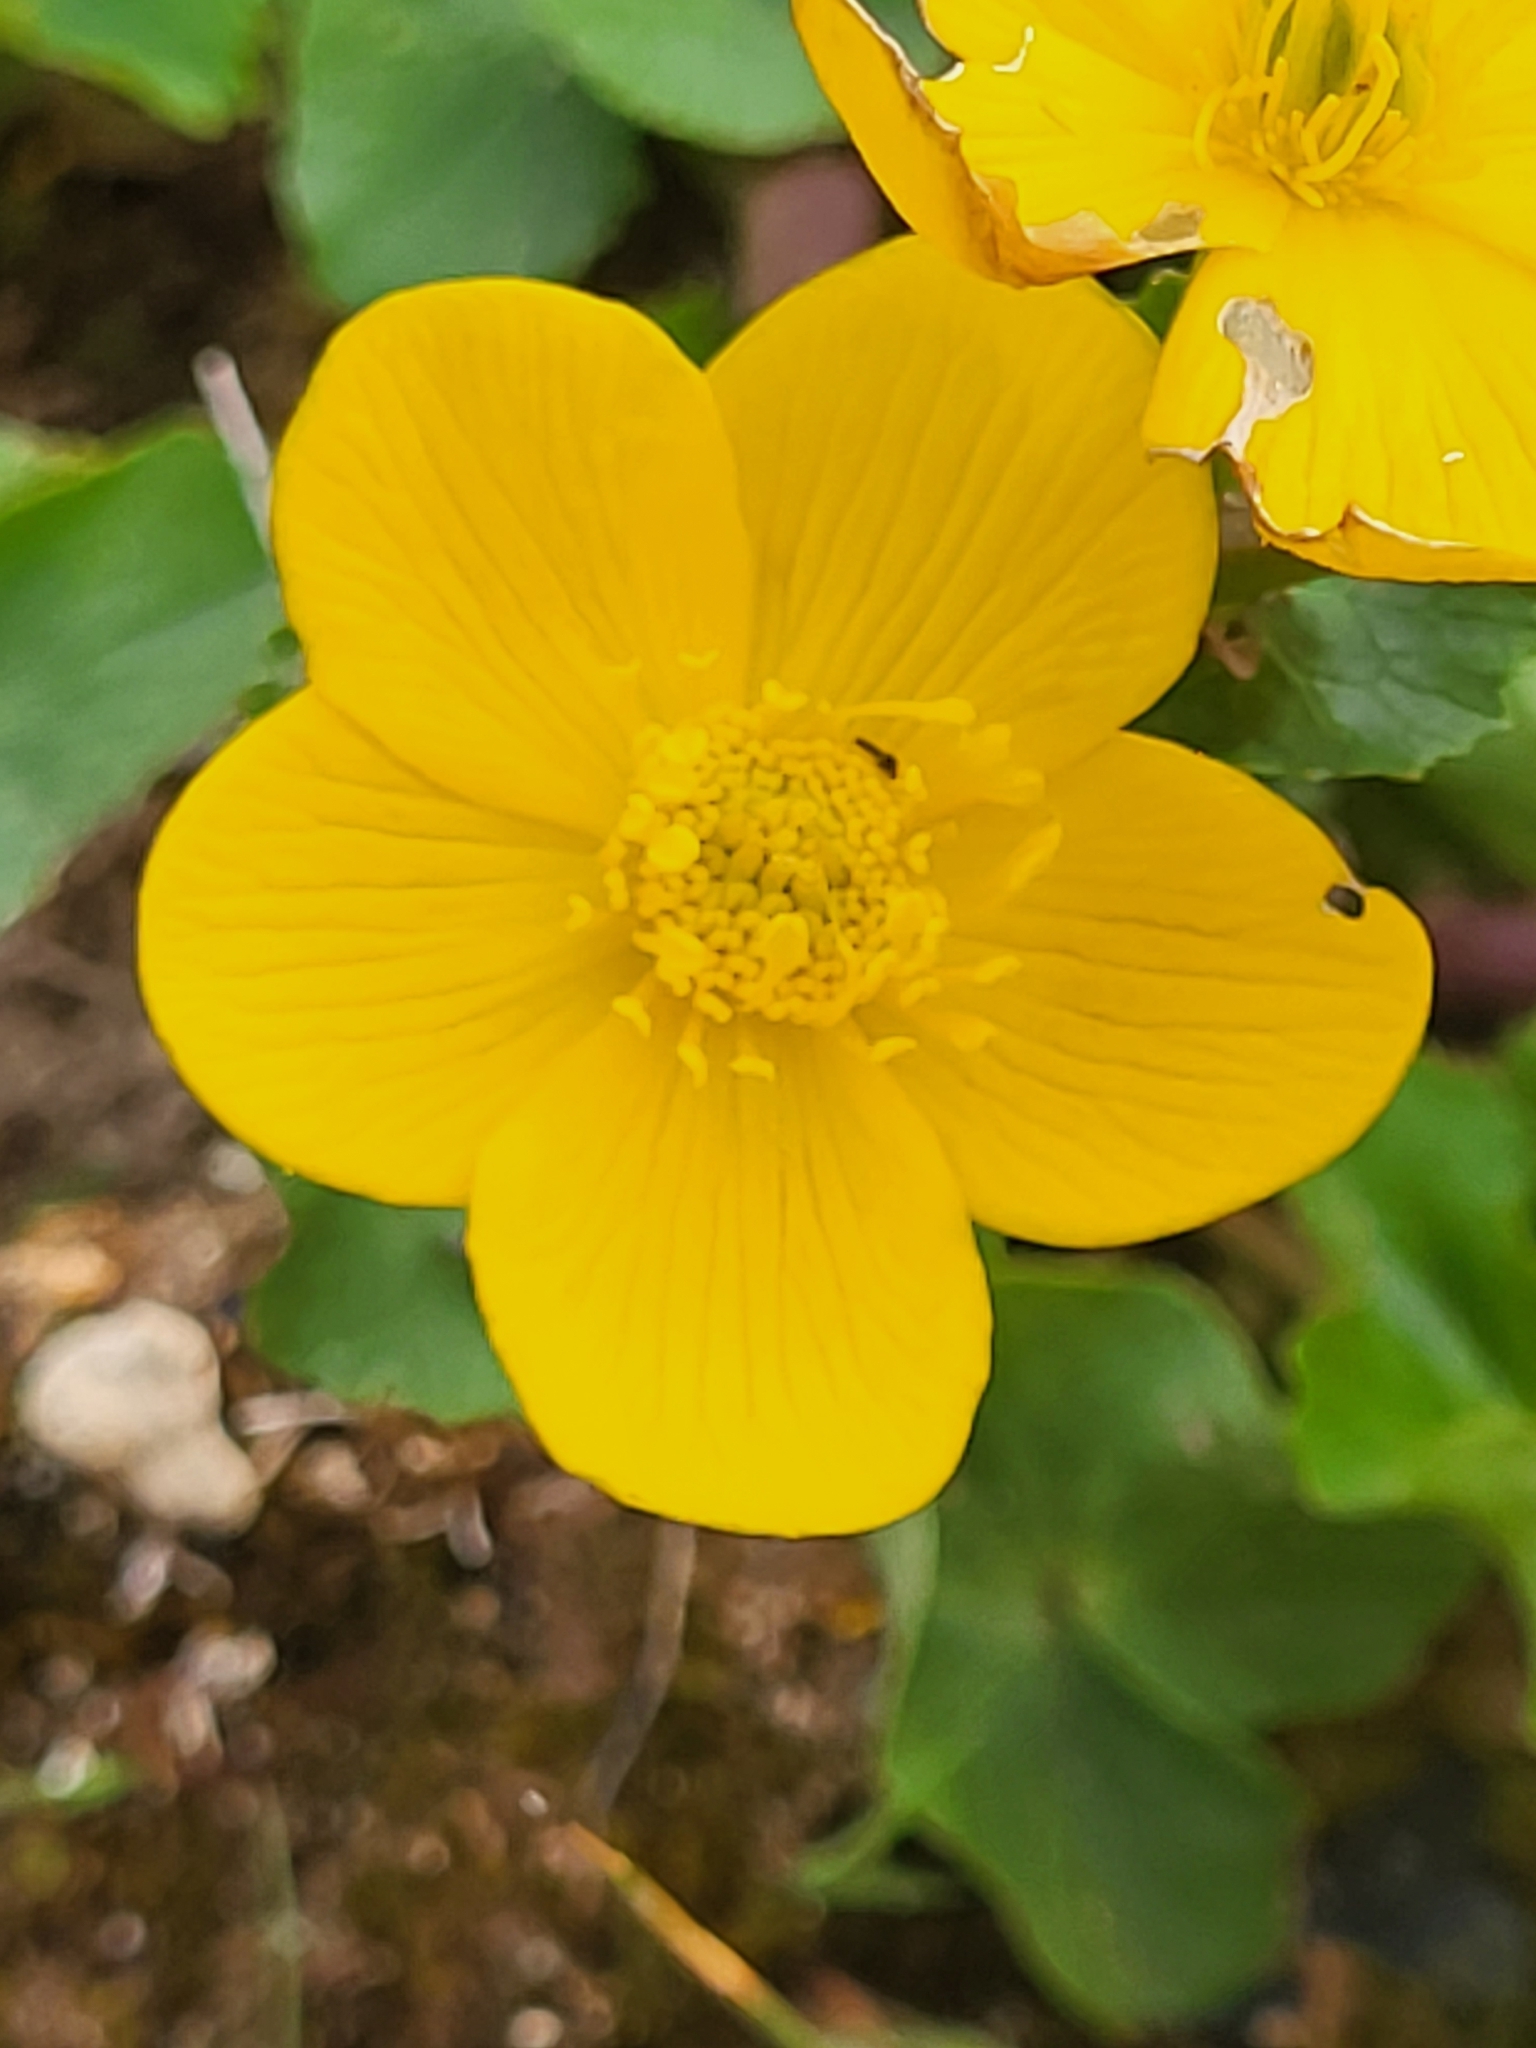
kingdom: Plantae
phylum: Tracheophyta
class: Magnoliopsida
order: Ranunculales
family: Ranunculaceae
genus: Caltha
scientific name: Caltha palustris
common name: Marsh marigold
